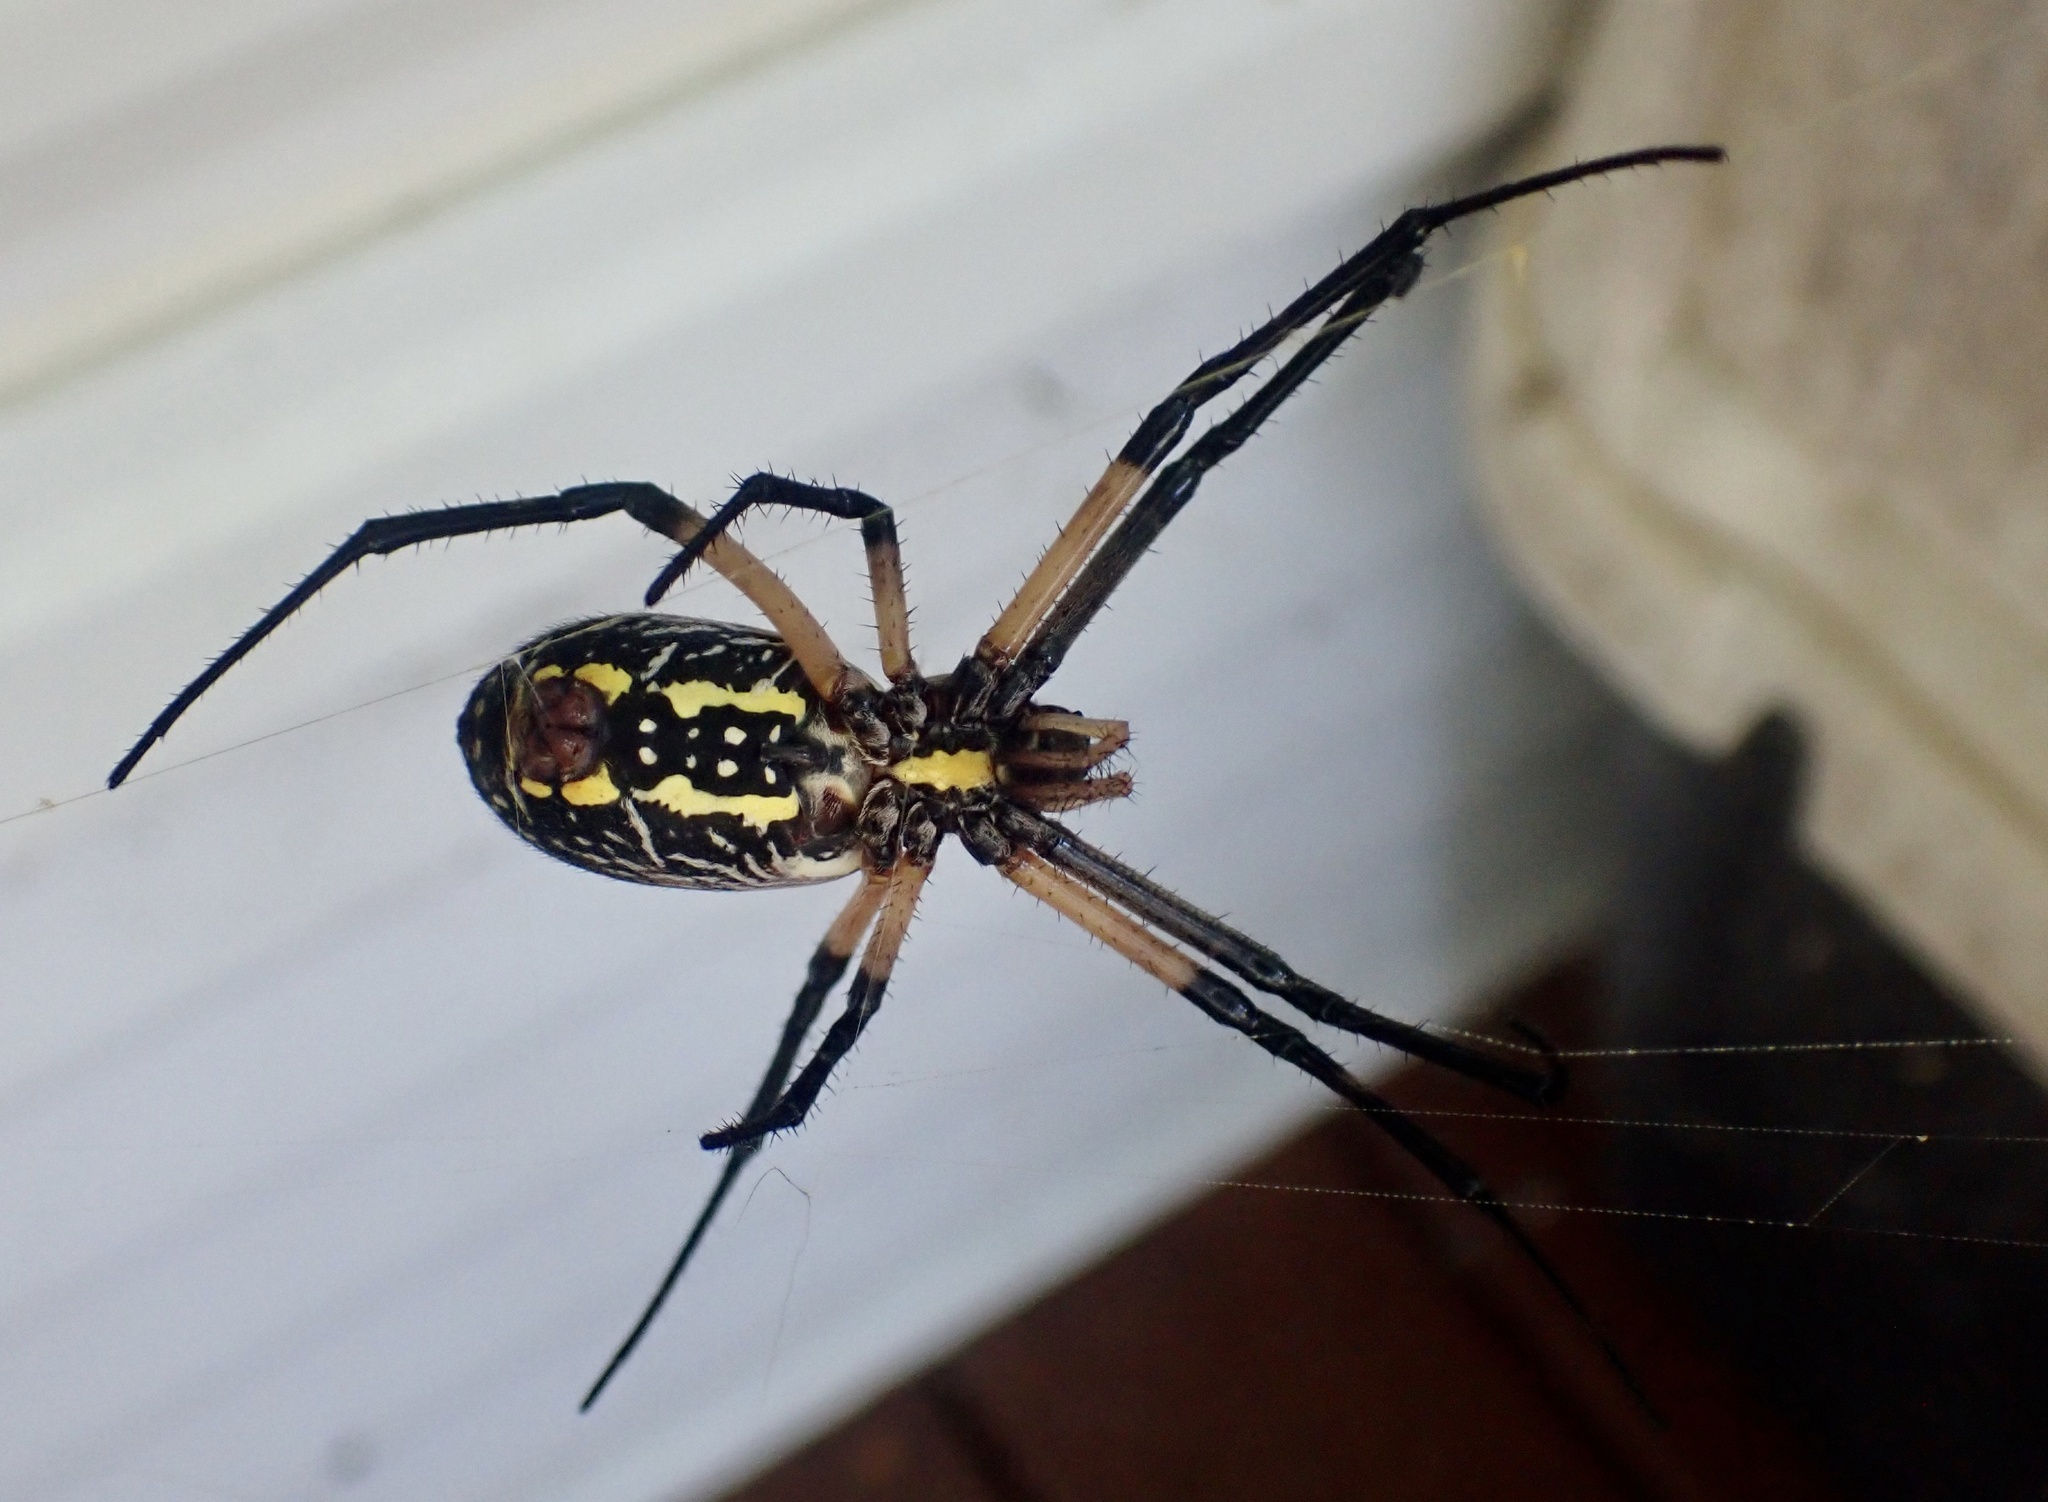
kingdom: Animalia
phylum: Arthropoda
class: Arachnida
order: Araneae
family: Araneidae
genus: Argiope
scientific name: Argiope aurantia
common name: Orb weavers
